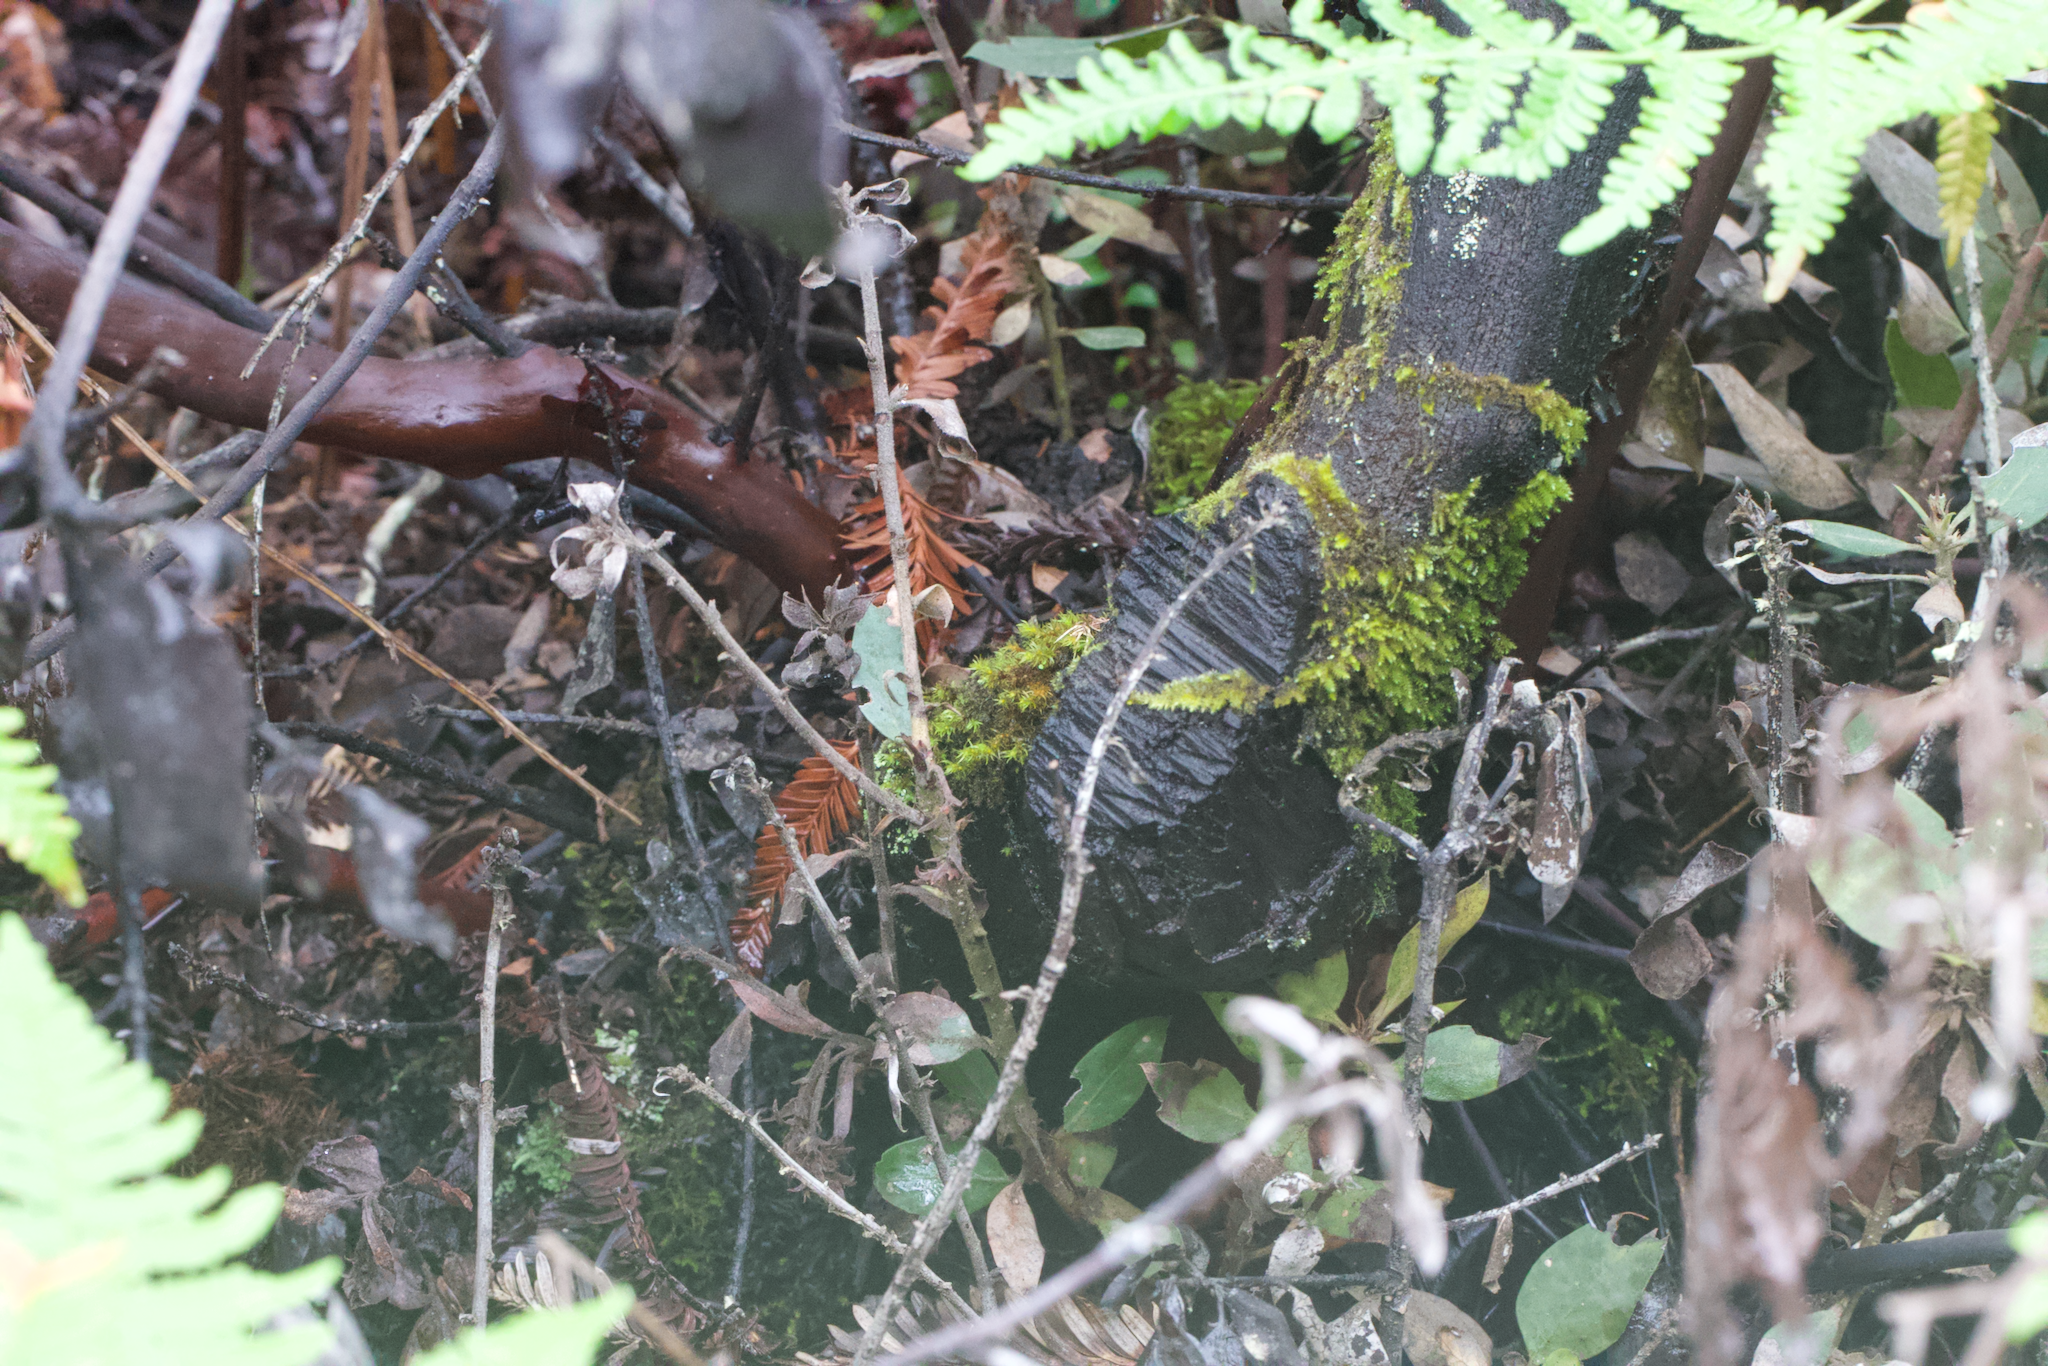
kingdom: Plantae
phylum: Tracheophyta
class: Magnoliopsida
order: Ericales
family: Ericaceae
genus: Arctostaphylos
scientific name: Arctostaphylos glandulosa
